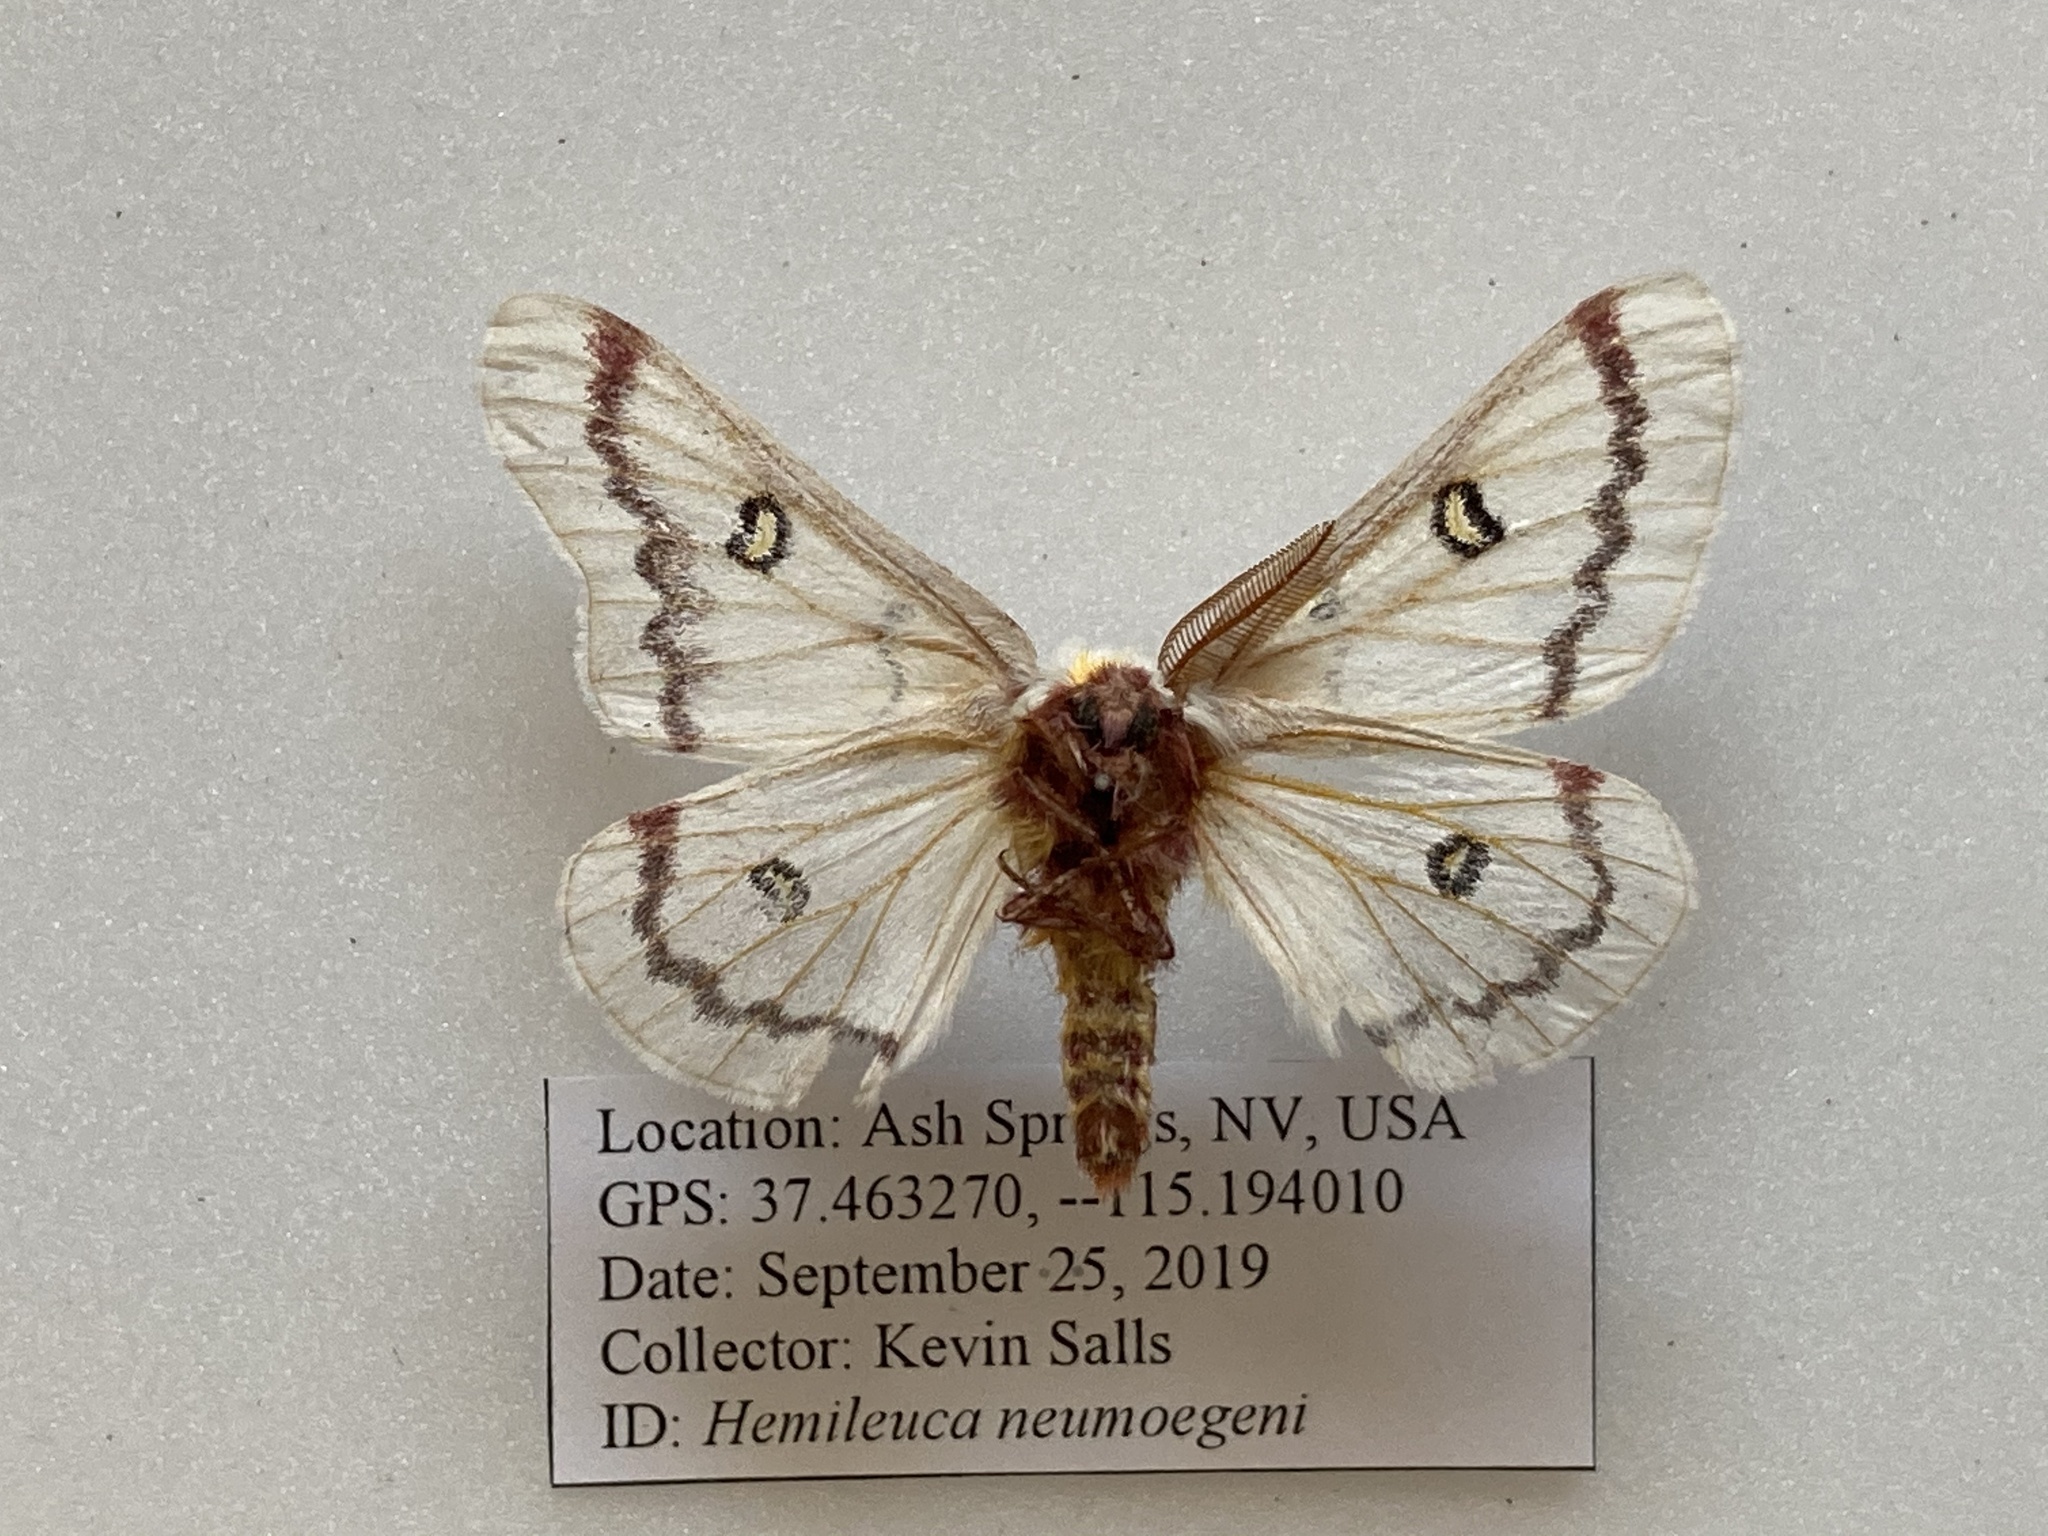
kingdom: Animalia
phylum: Arthropoda
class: Insecta
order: Lepidoptera
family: Saturniidae
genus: Hemileuca
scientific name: Hemileuca neumoegeni
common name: Neumoegen's buckmoth
